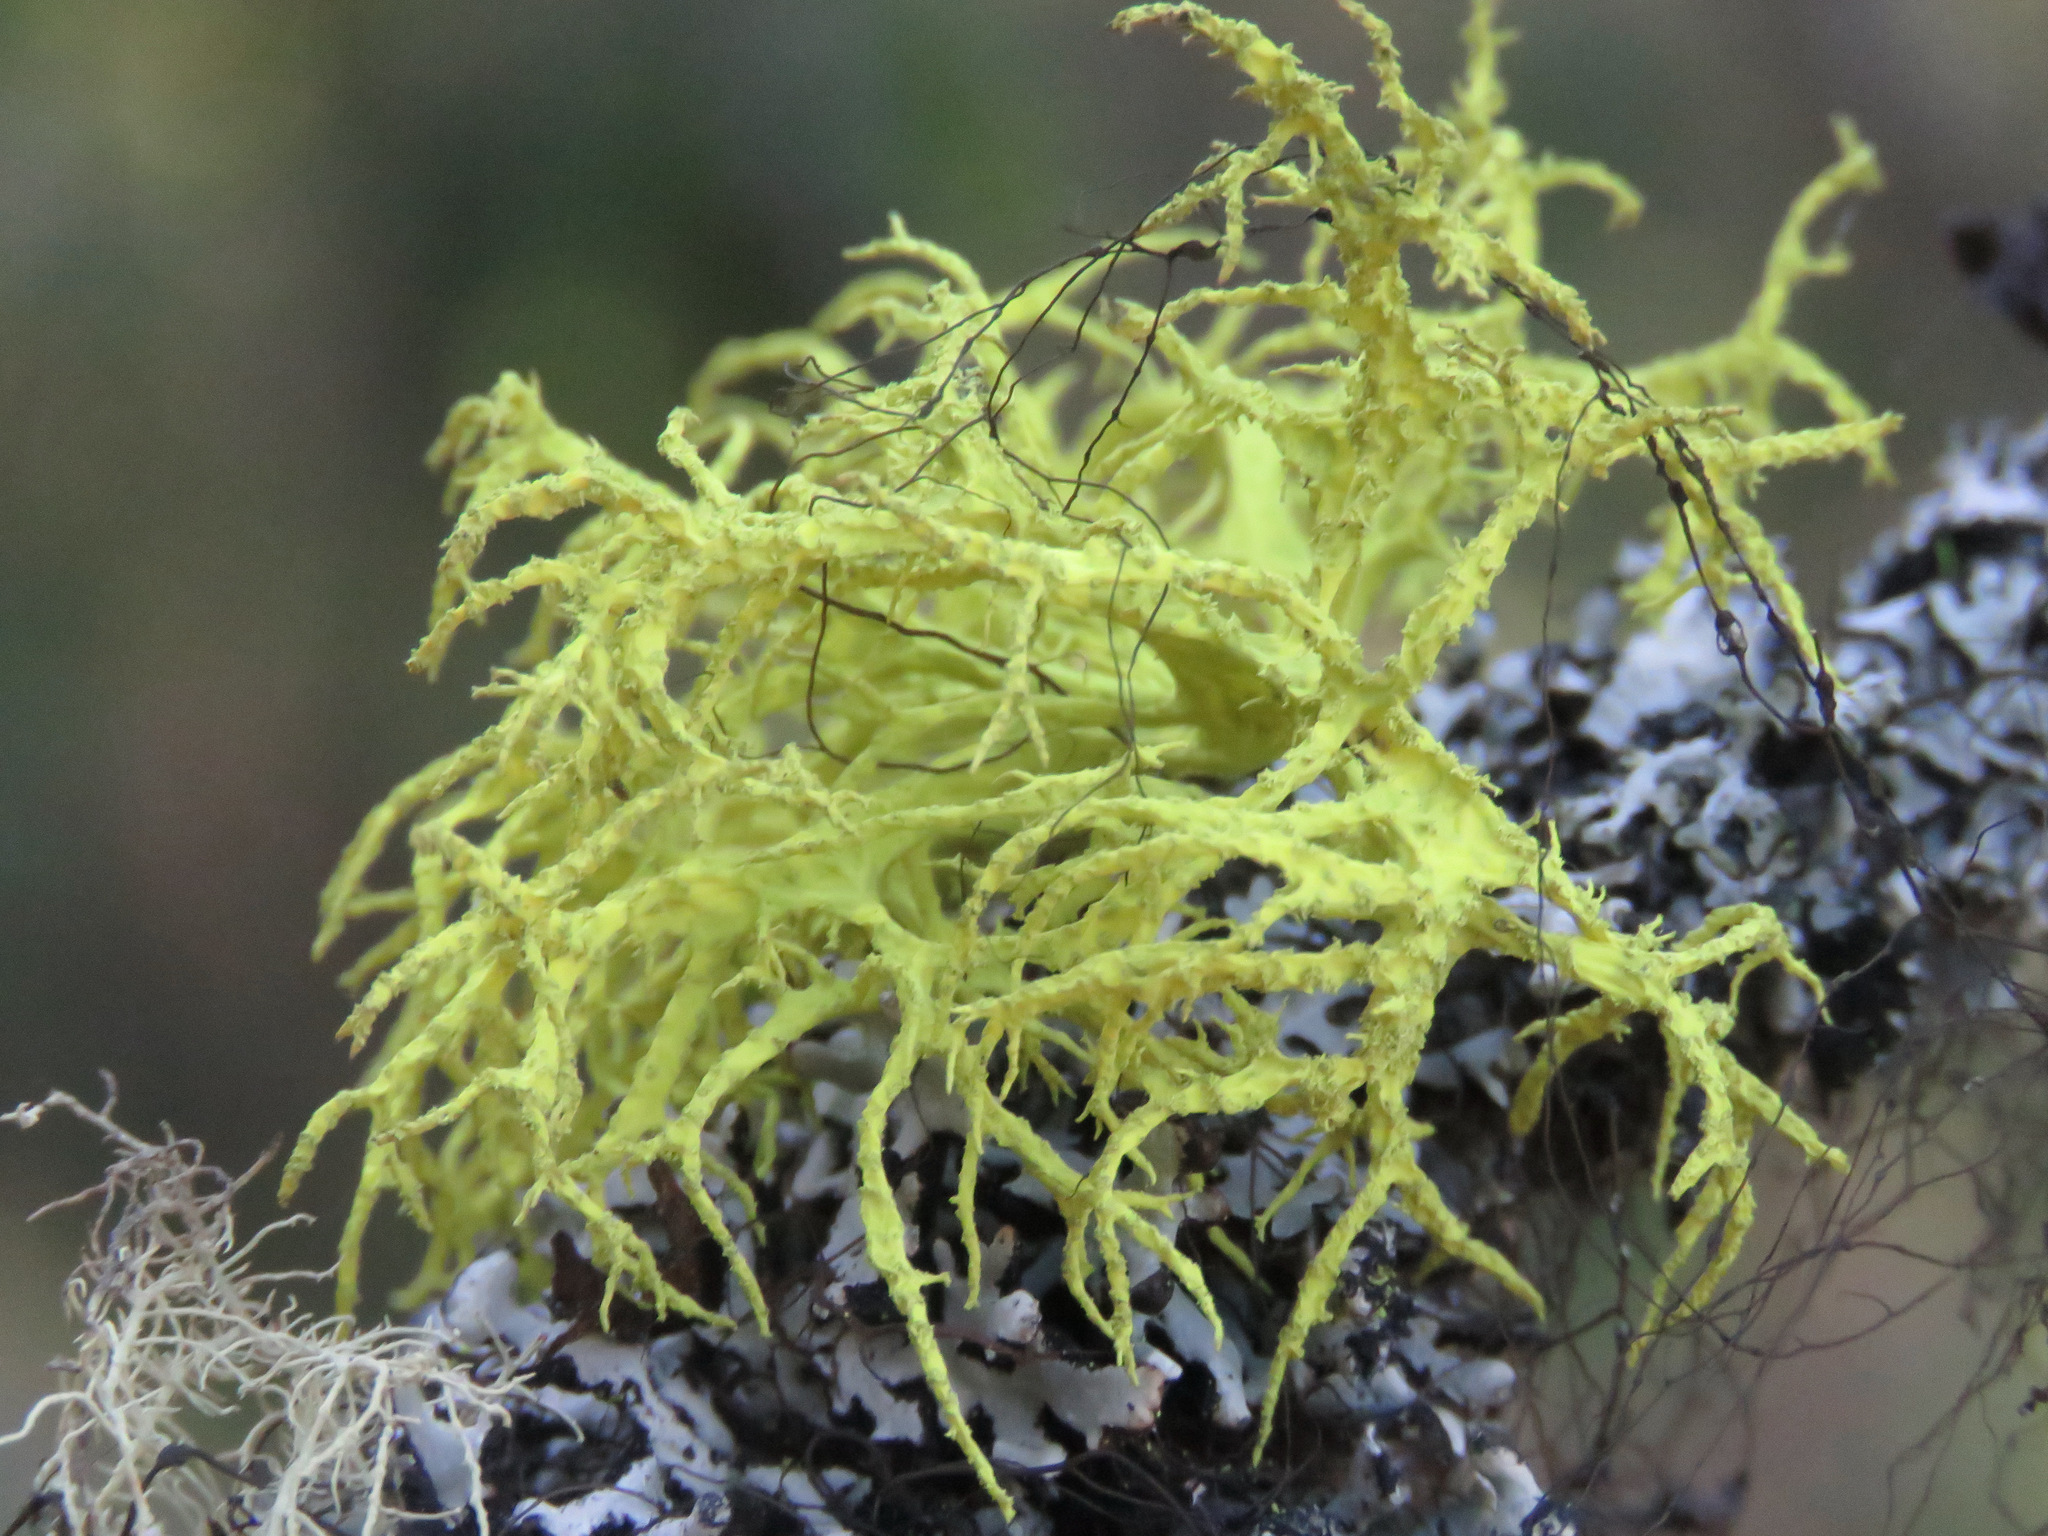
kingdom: Fungi
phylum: Ascomycota
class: Lecanoromycetes
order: Lecanorales
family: Parmeliaceae
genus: Letharia
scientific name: Letharia vulpina
